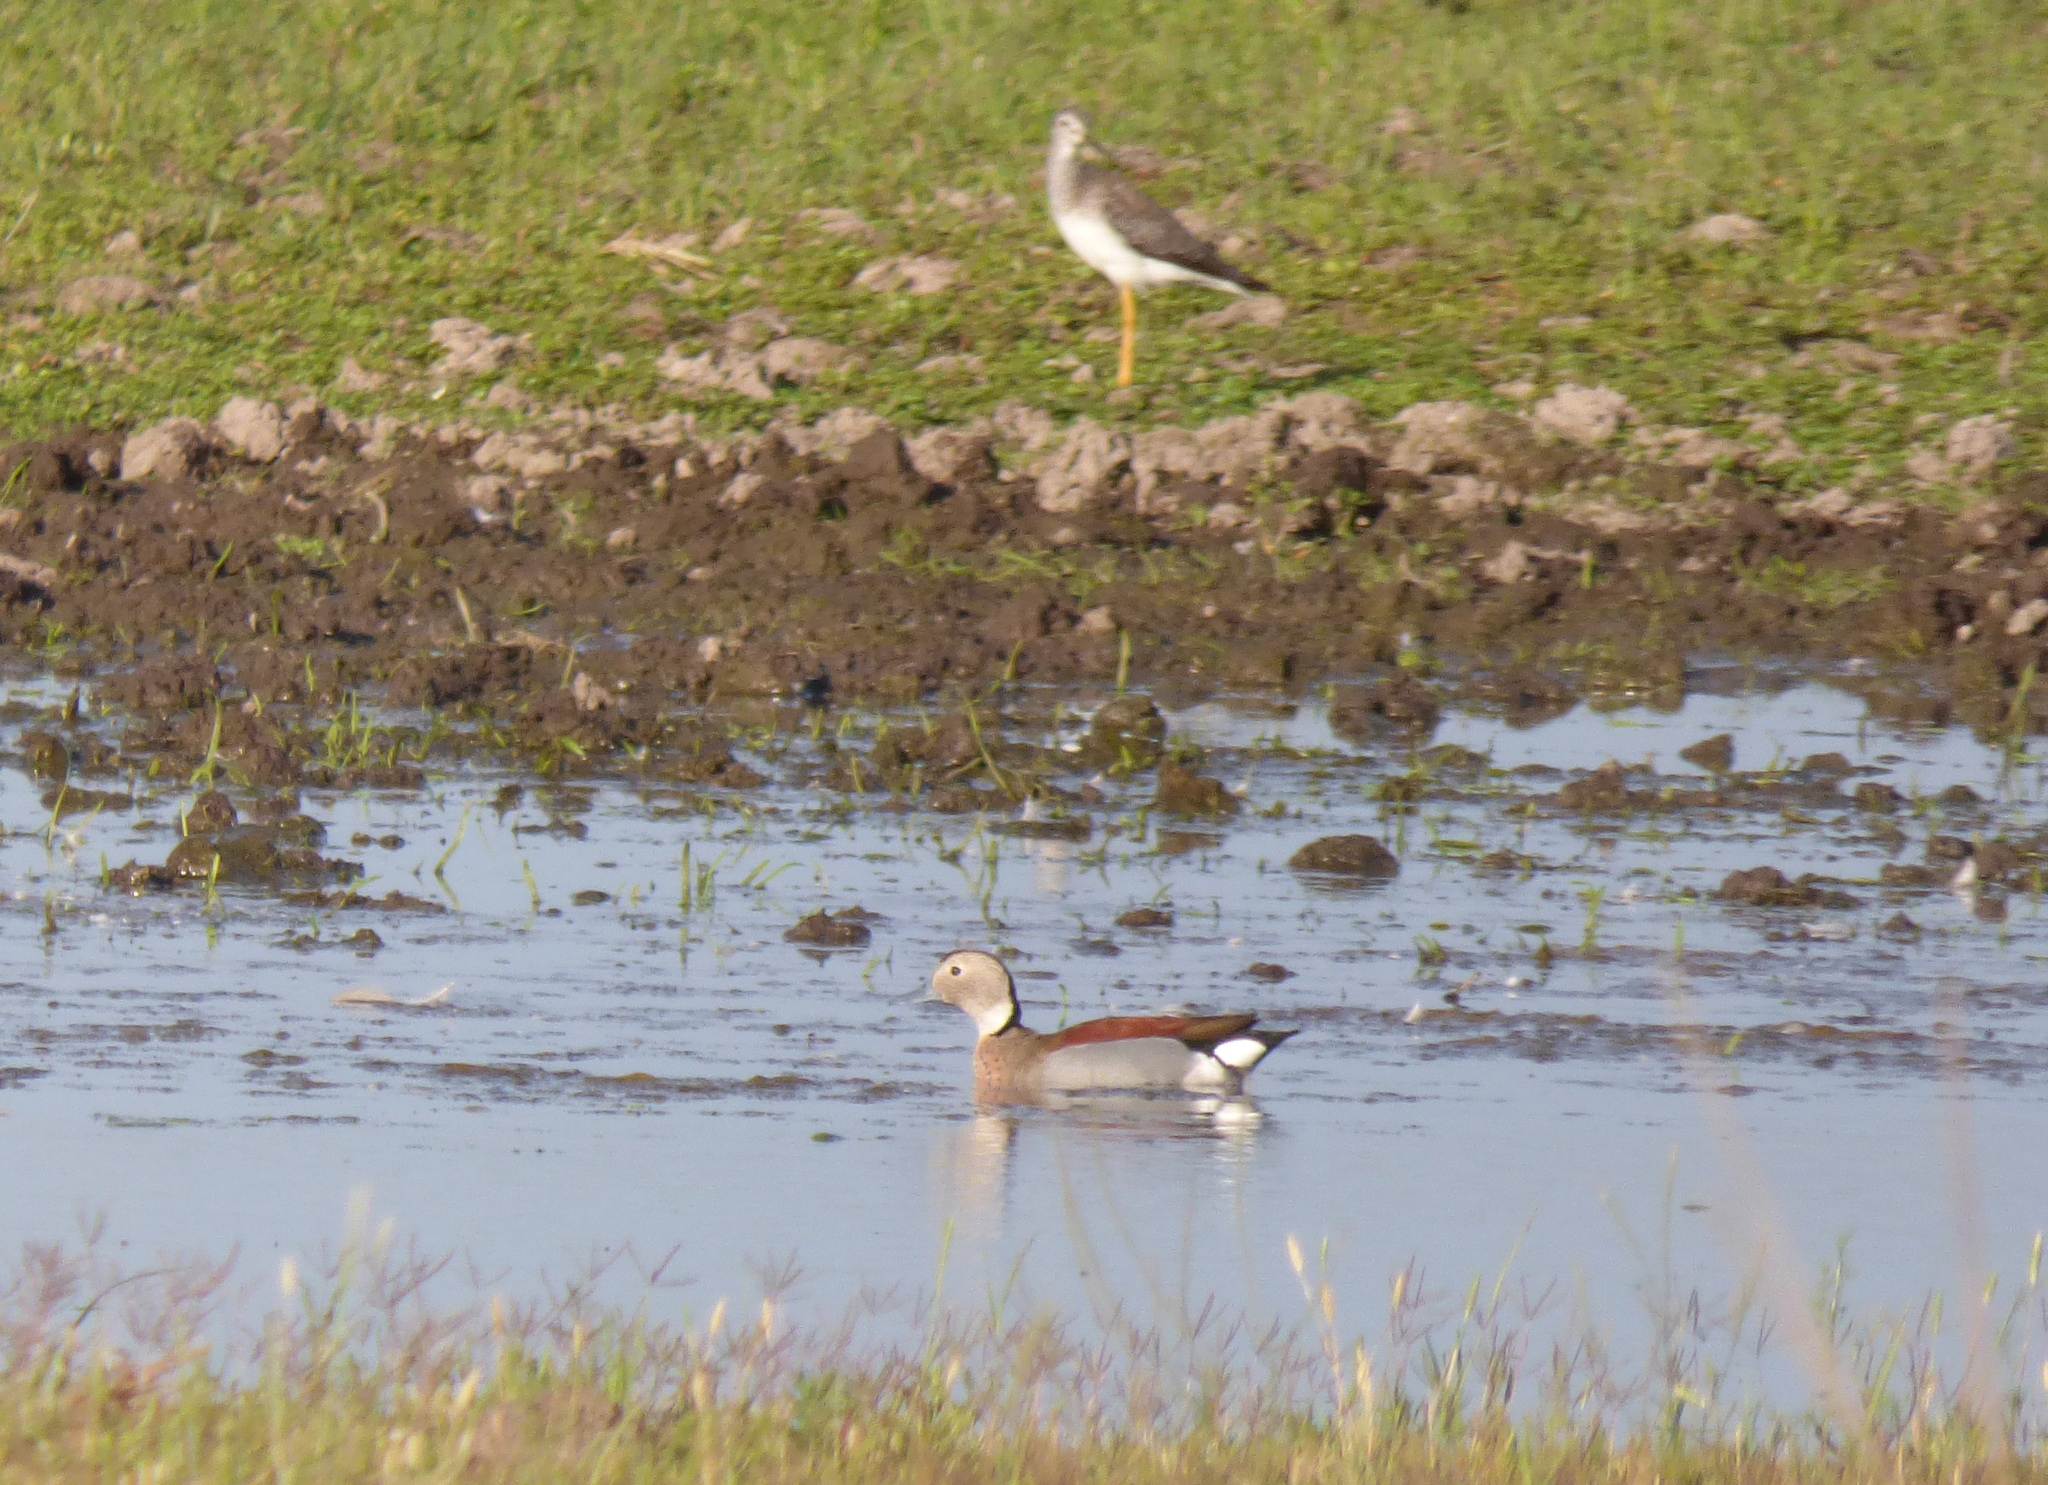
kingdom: Animalia
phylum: Chordata
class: Aves
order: Anseriformes
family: Anatidae
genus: Callonetta
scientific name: Callonetta leucophrys
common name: Ringed teal
